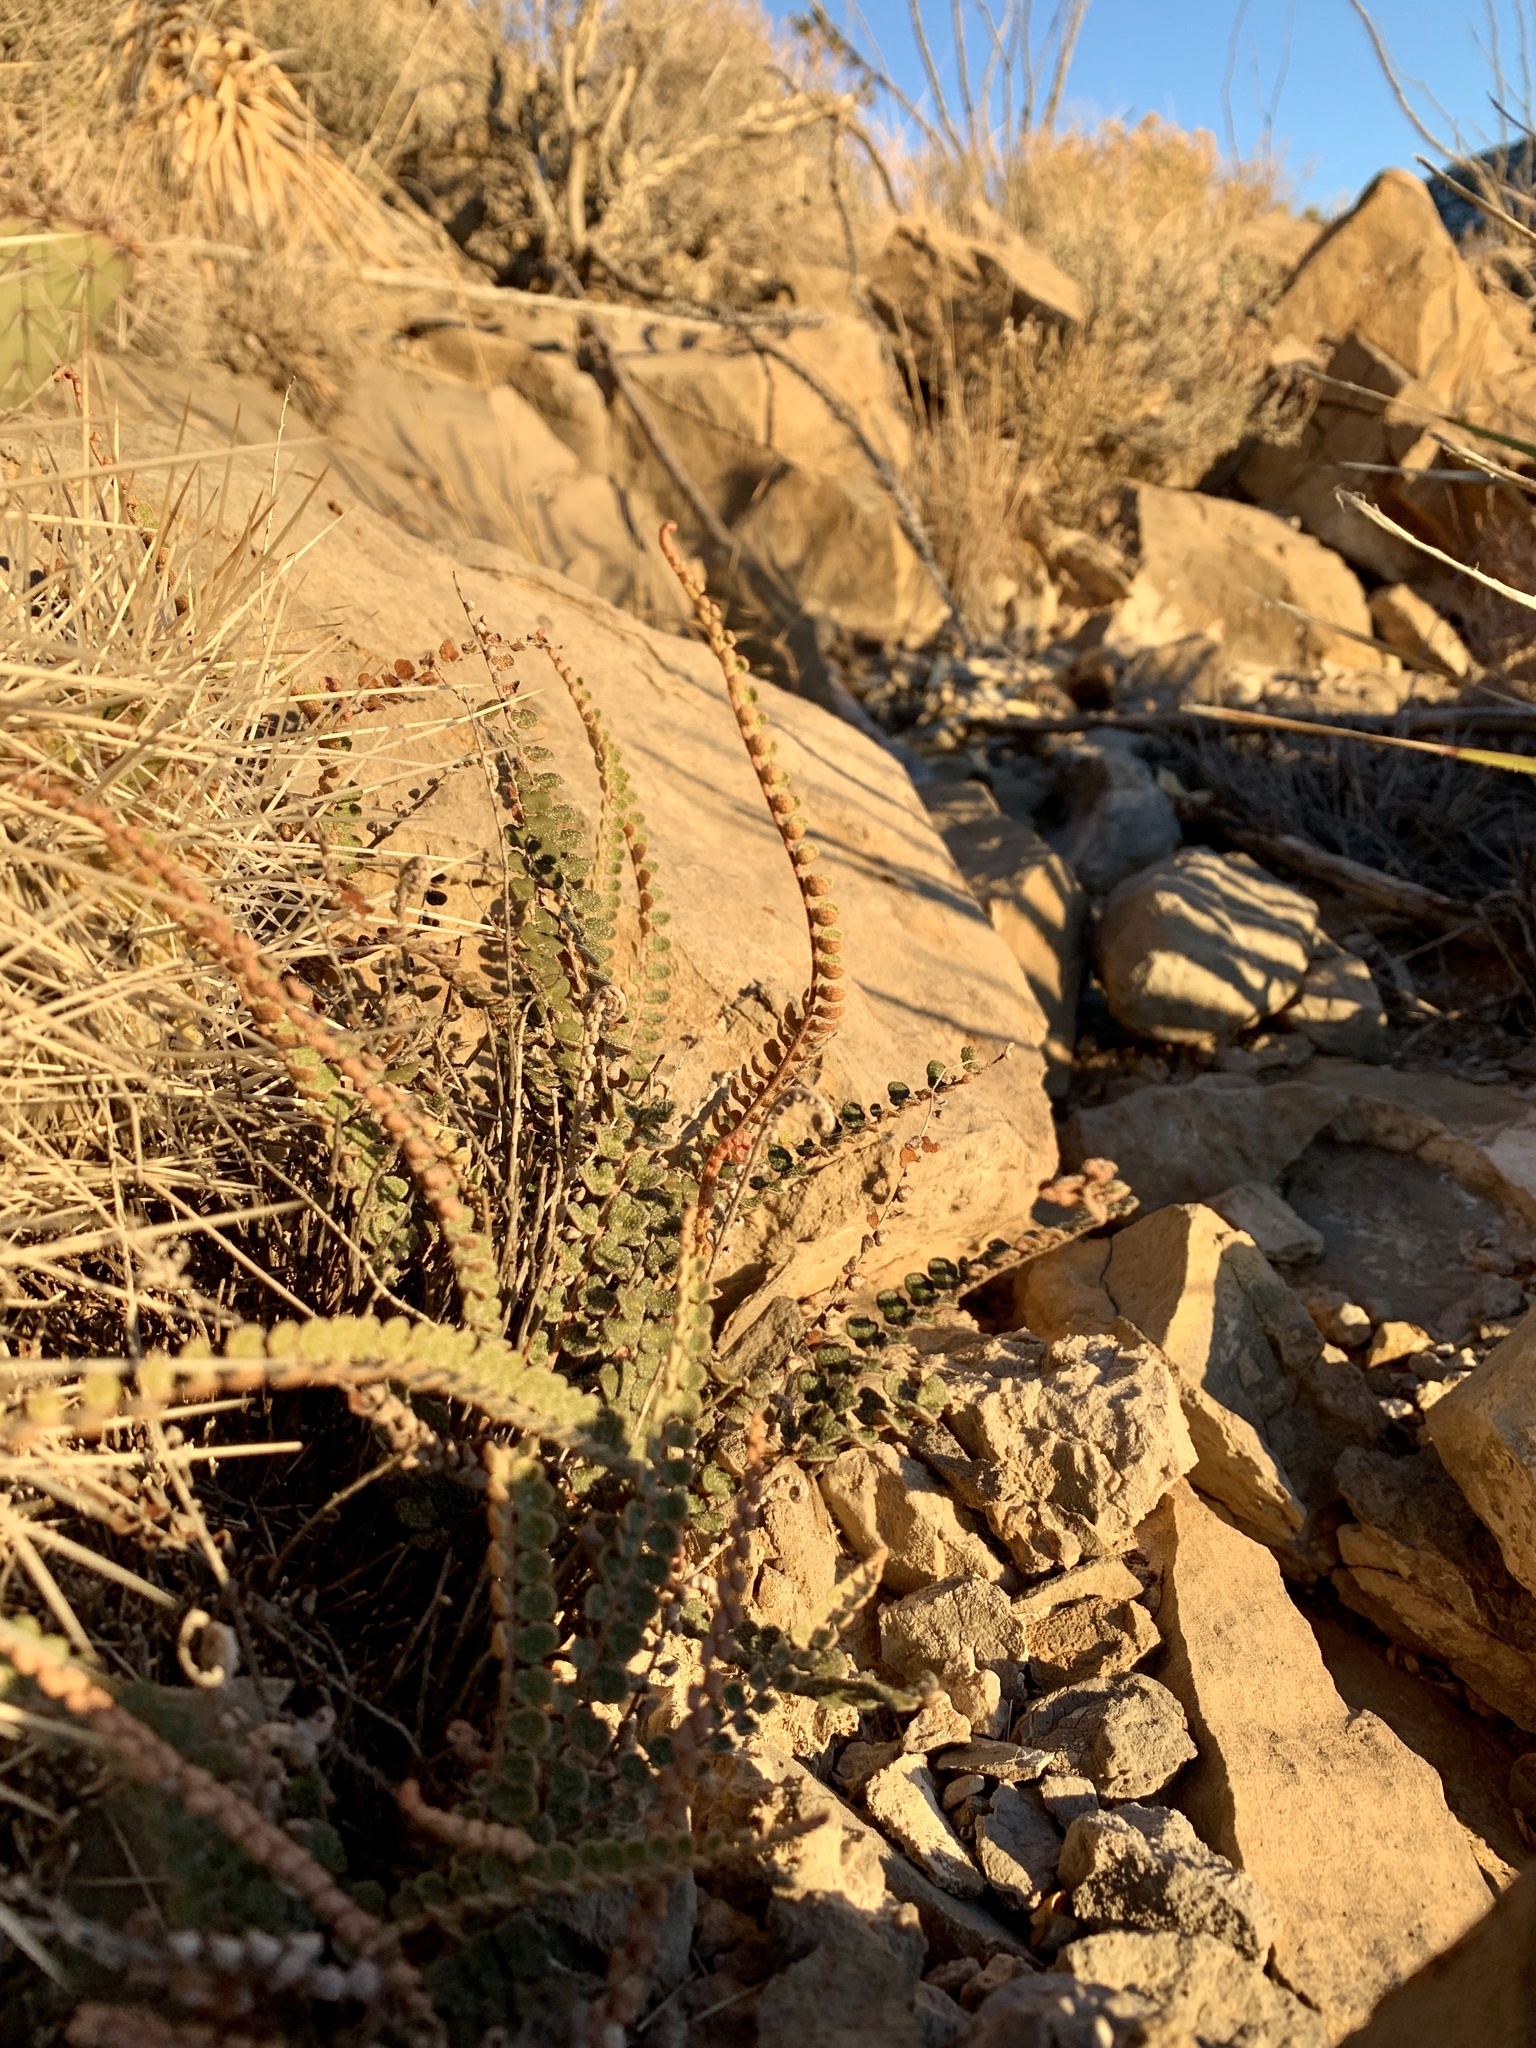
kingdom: Plantae
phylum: Tracheophyta
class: Polypodiopsida
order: Polypodiales
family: Pteridaceae
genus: Astrolepis
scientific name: Astrolepis cochisensis
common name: Scaly cloak fern
